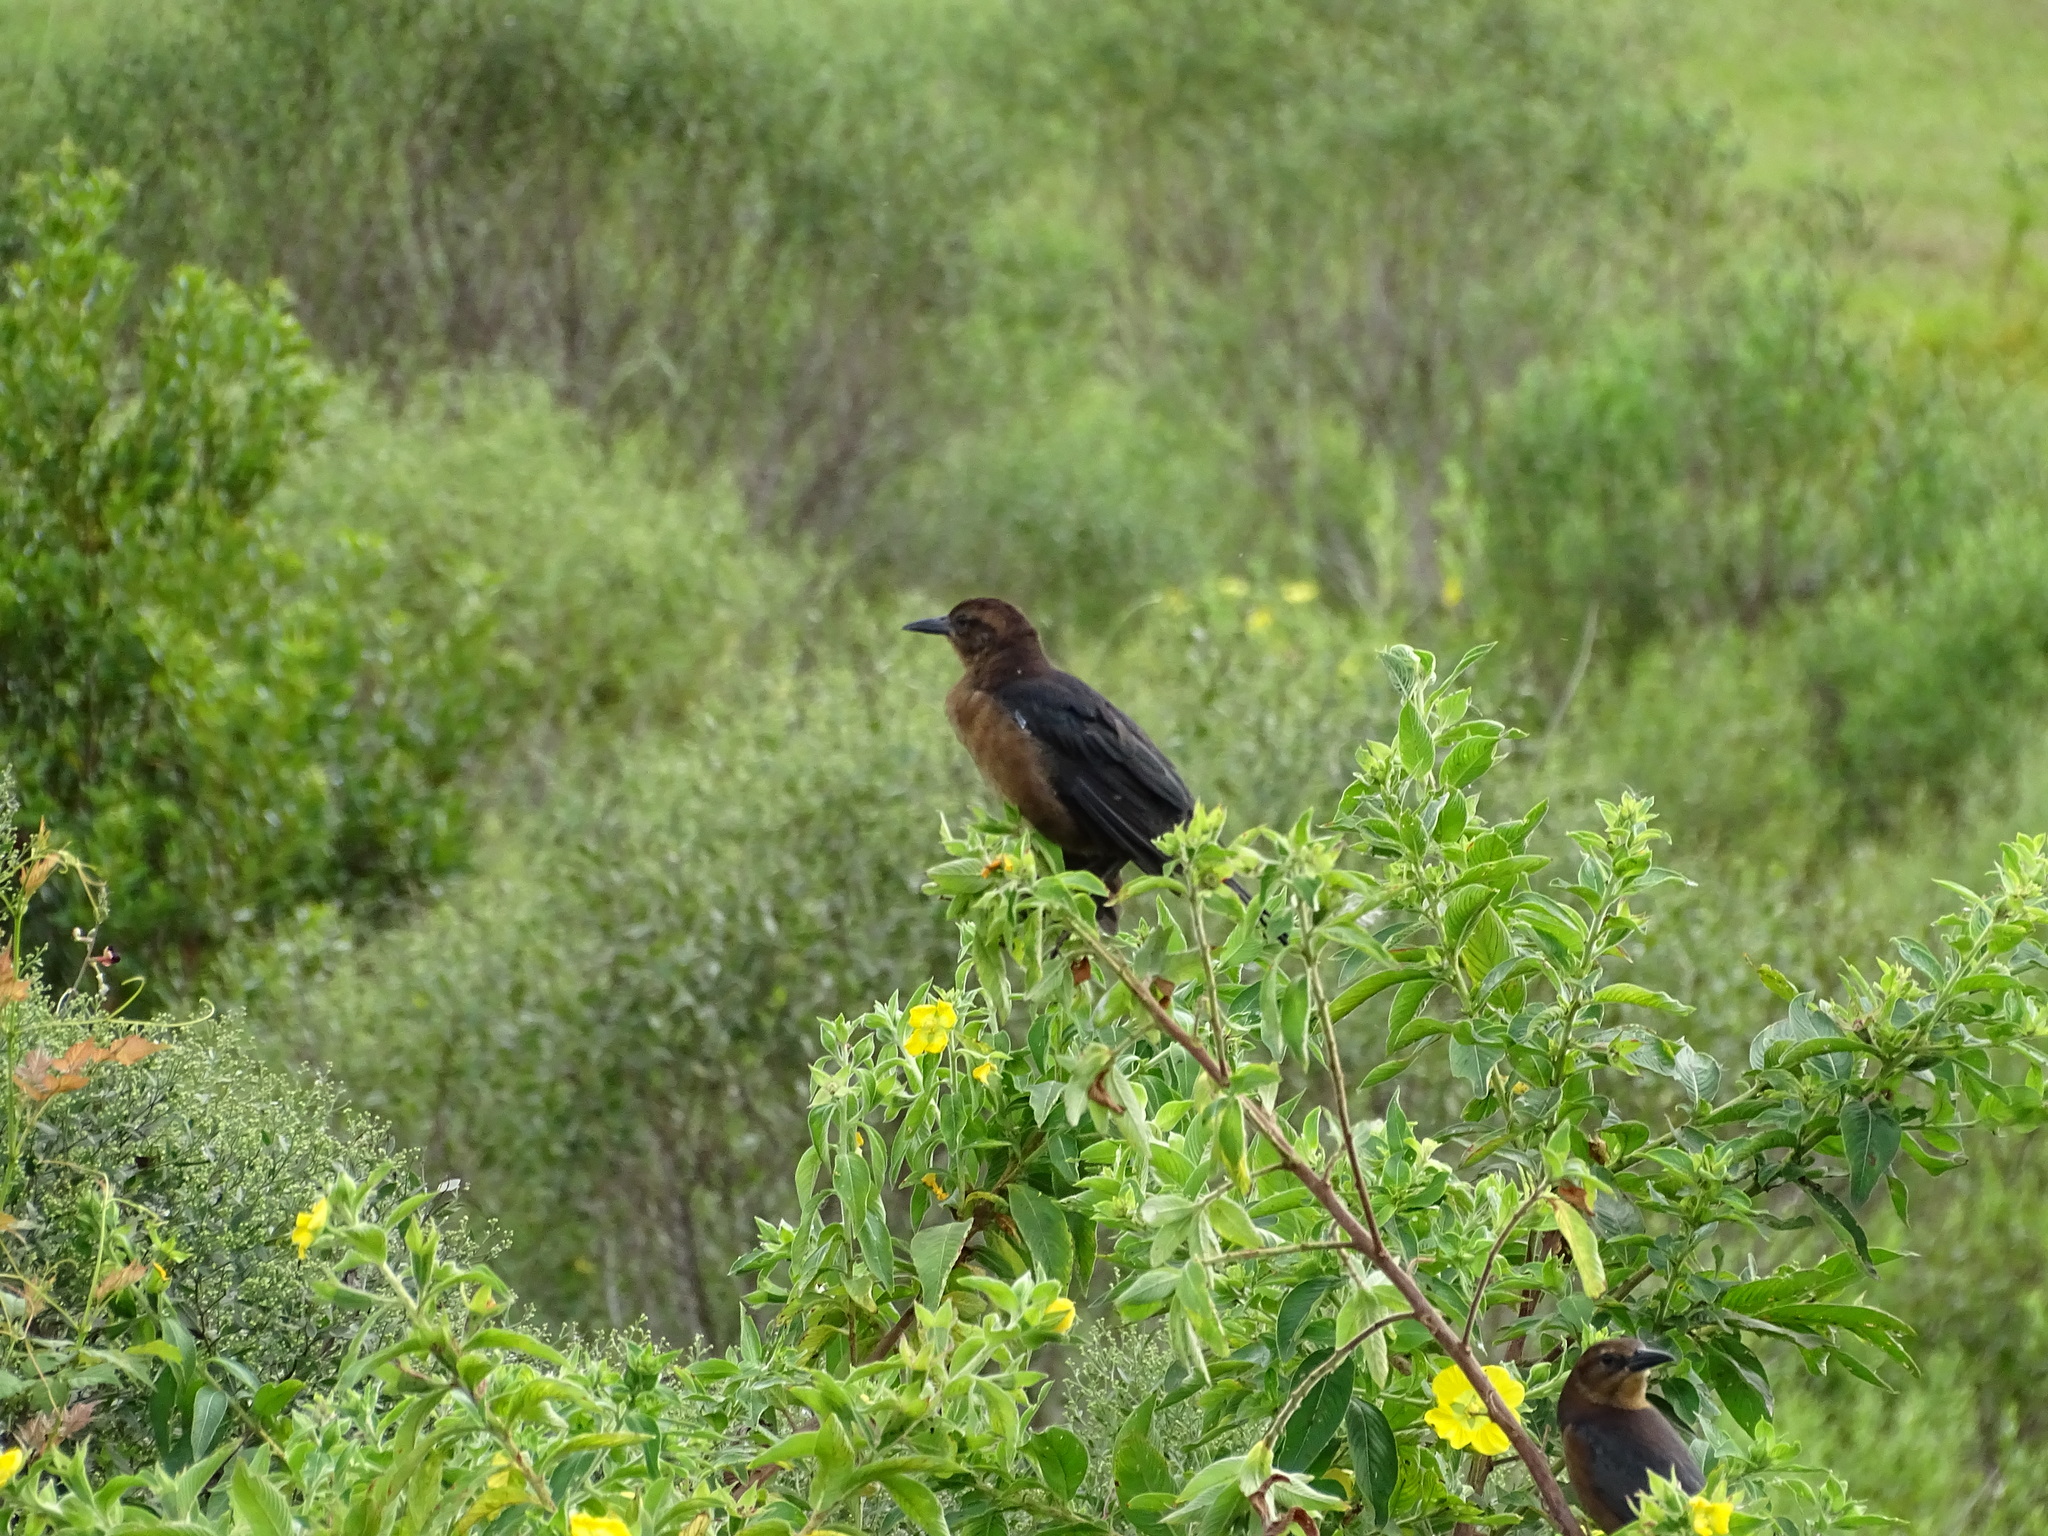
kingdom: Animalia
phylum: Chordata
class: Aves
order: Passeriformes
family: Icteridae
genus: Quiscalus
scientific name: Quiscalus major
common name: Boat-tailed grackle
